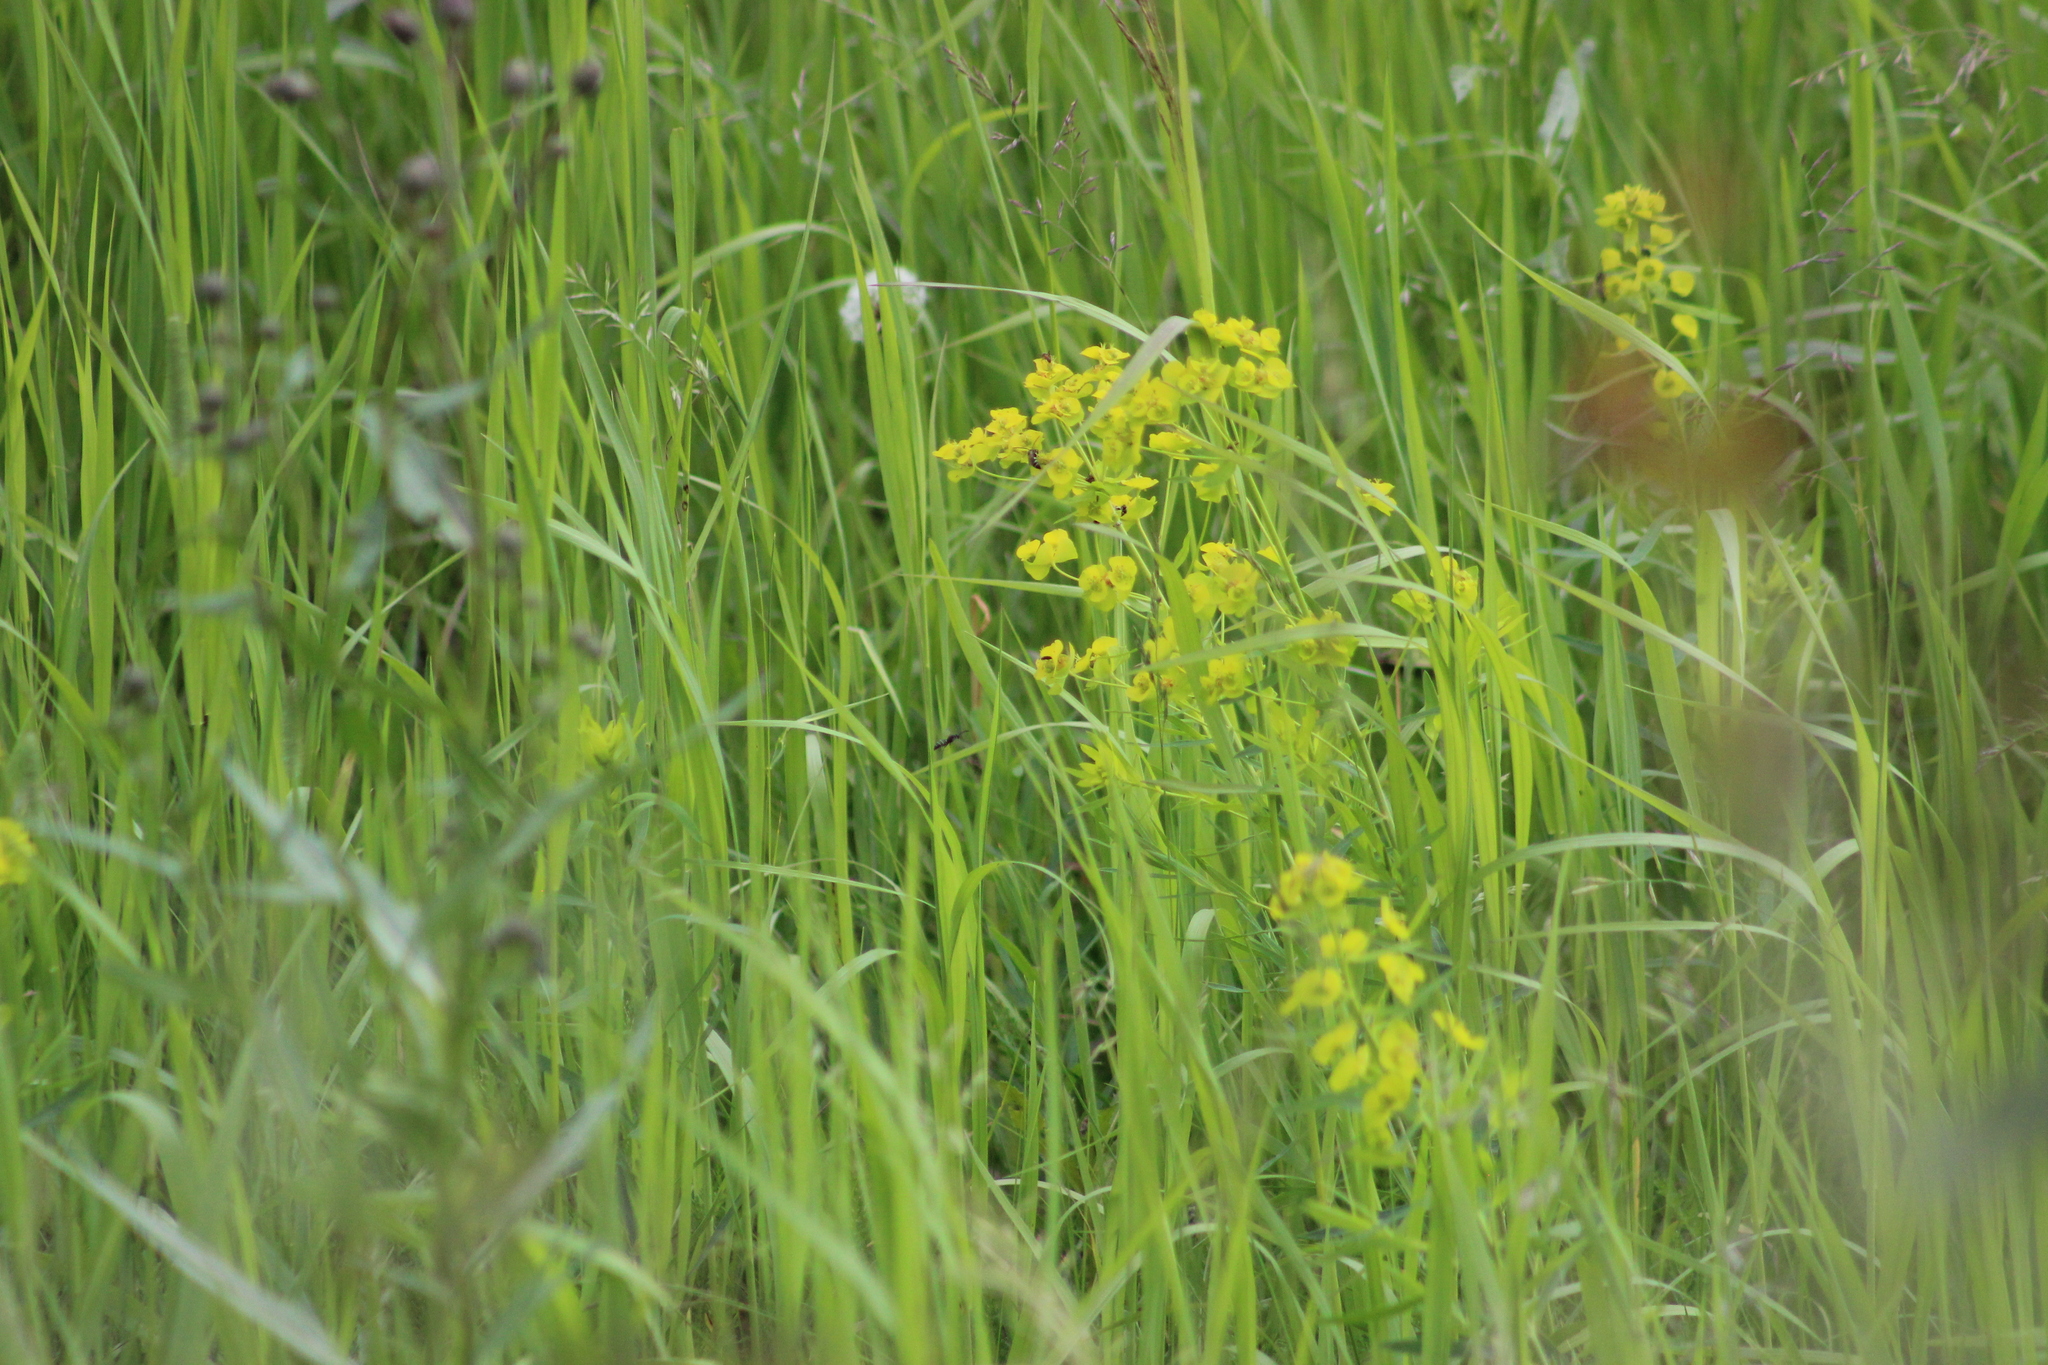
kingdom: Plantae
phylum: Tracheophyta
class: Magnoliopsida
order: Malpighiales
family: Euphorbiaceae
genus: Euphorbia
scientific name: Euphorbia virgata
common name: Leafy spurge
